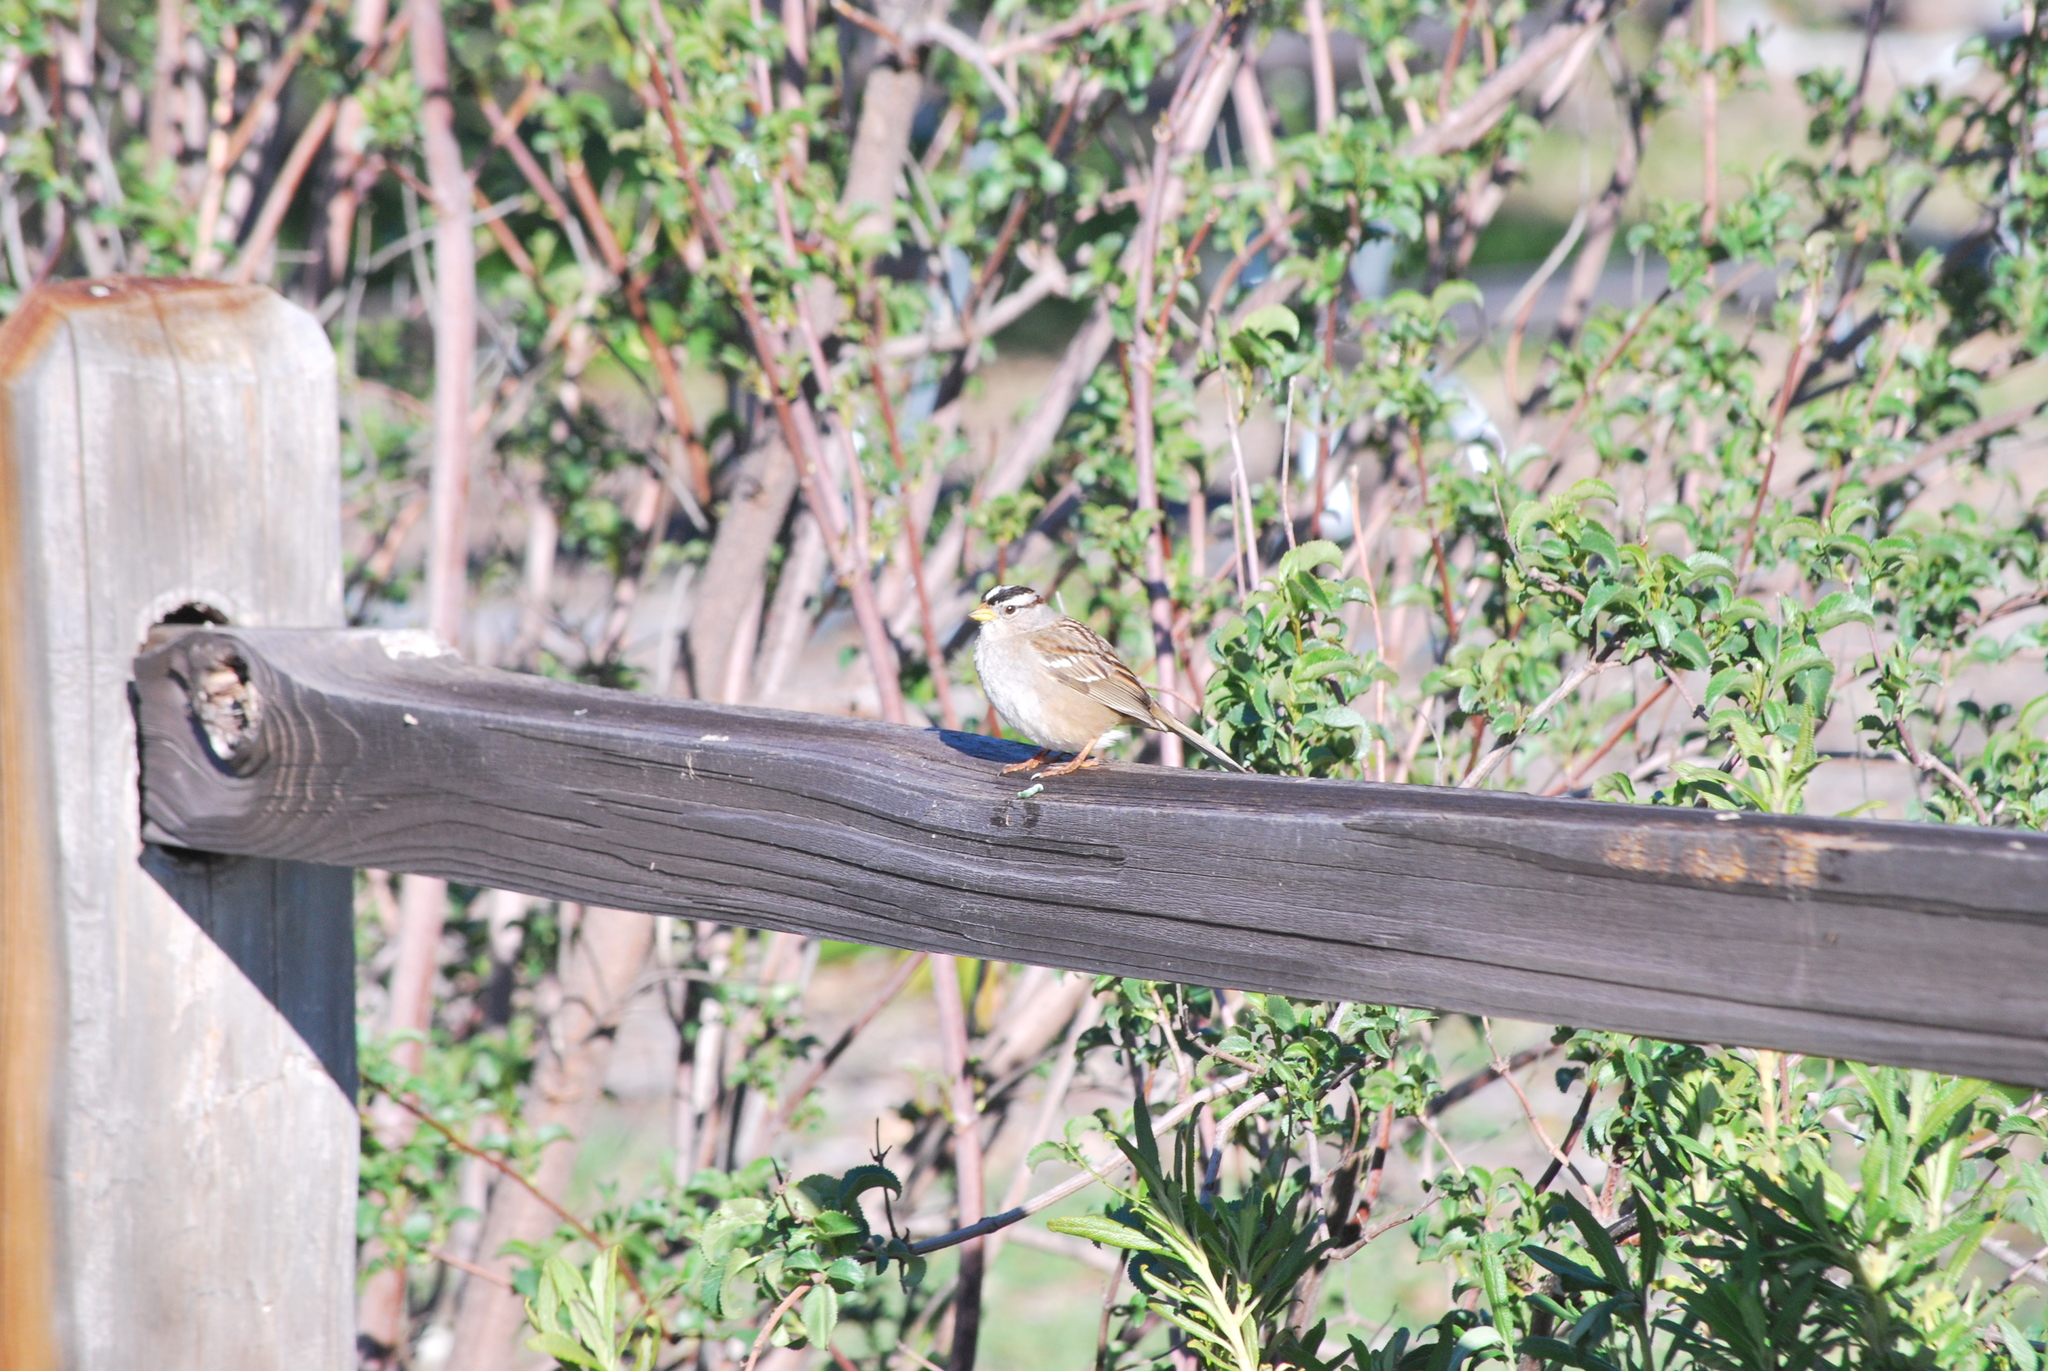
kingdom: Animalia
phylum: Chordata
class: Aves
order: Passeriformes
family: Passerellidae
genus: Zonotrichia
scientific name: Zonotrichia leucophrys
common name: White-crowned sparrow
